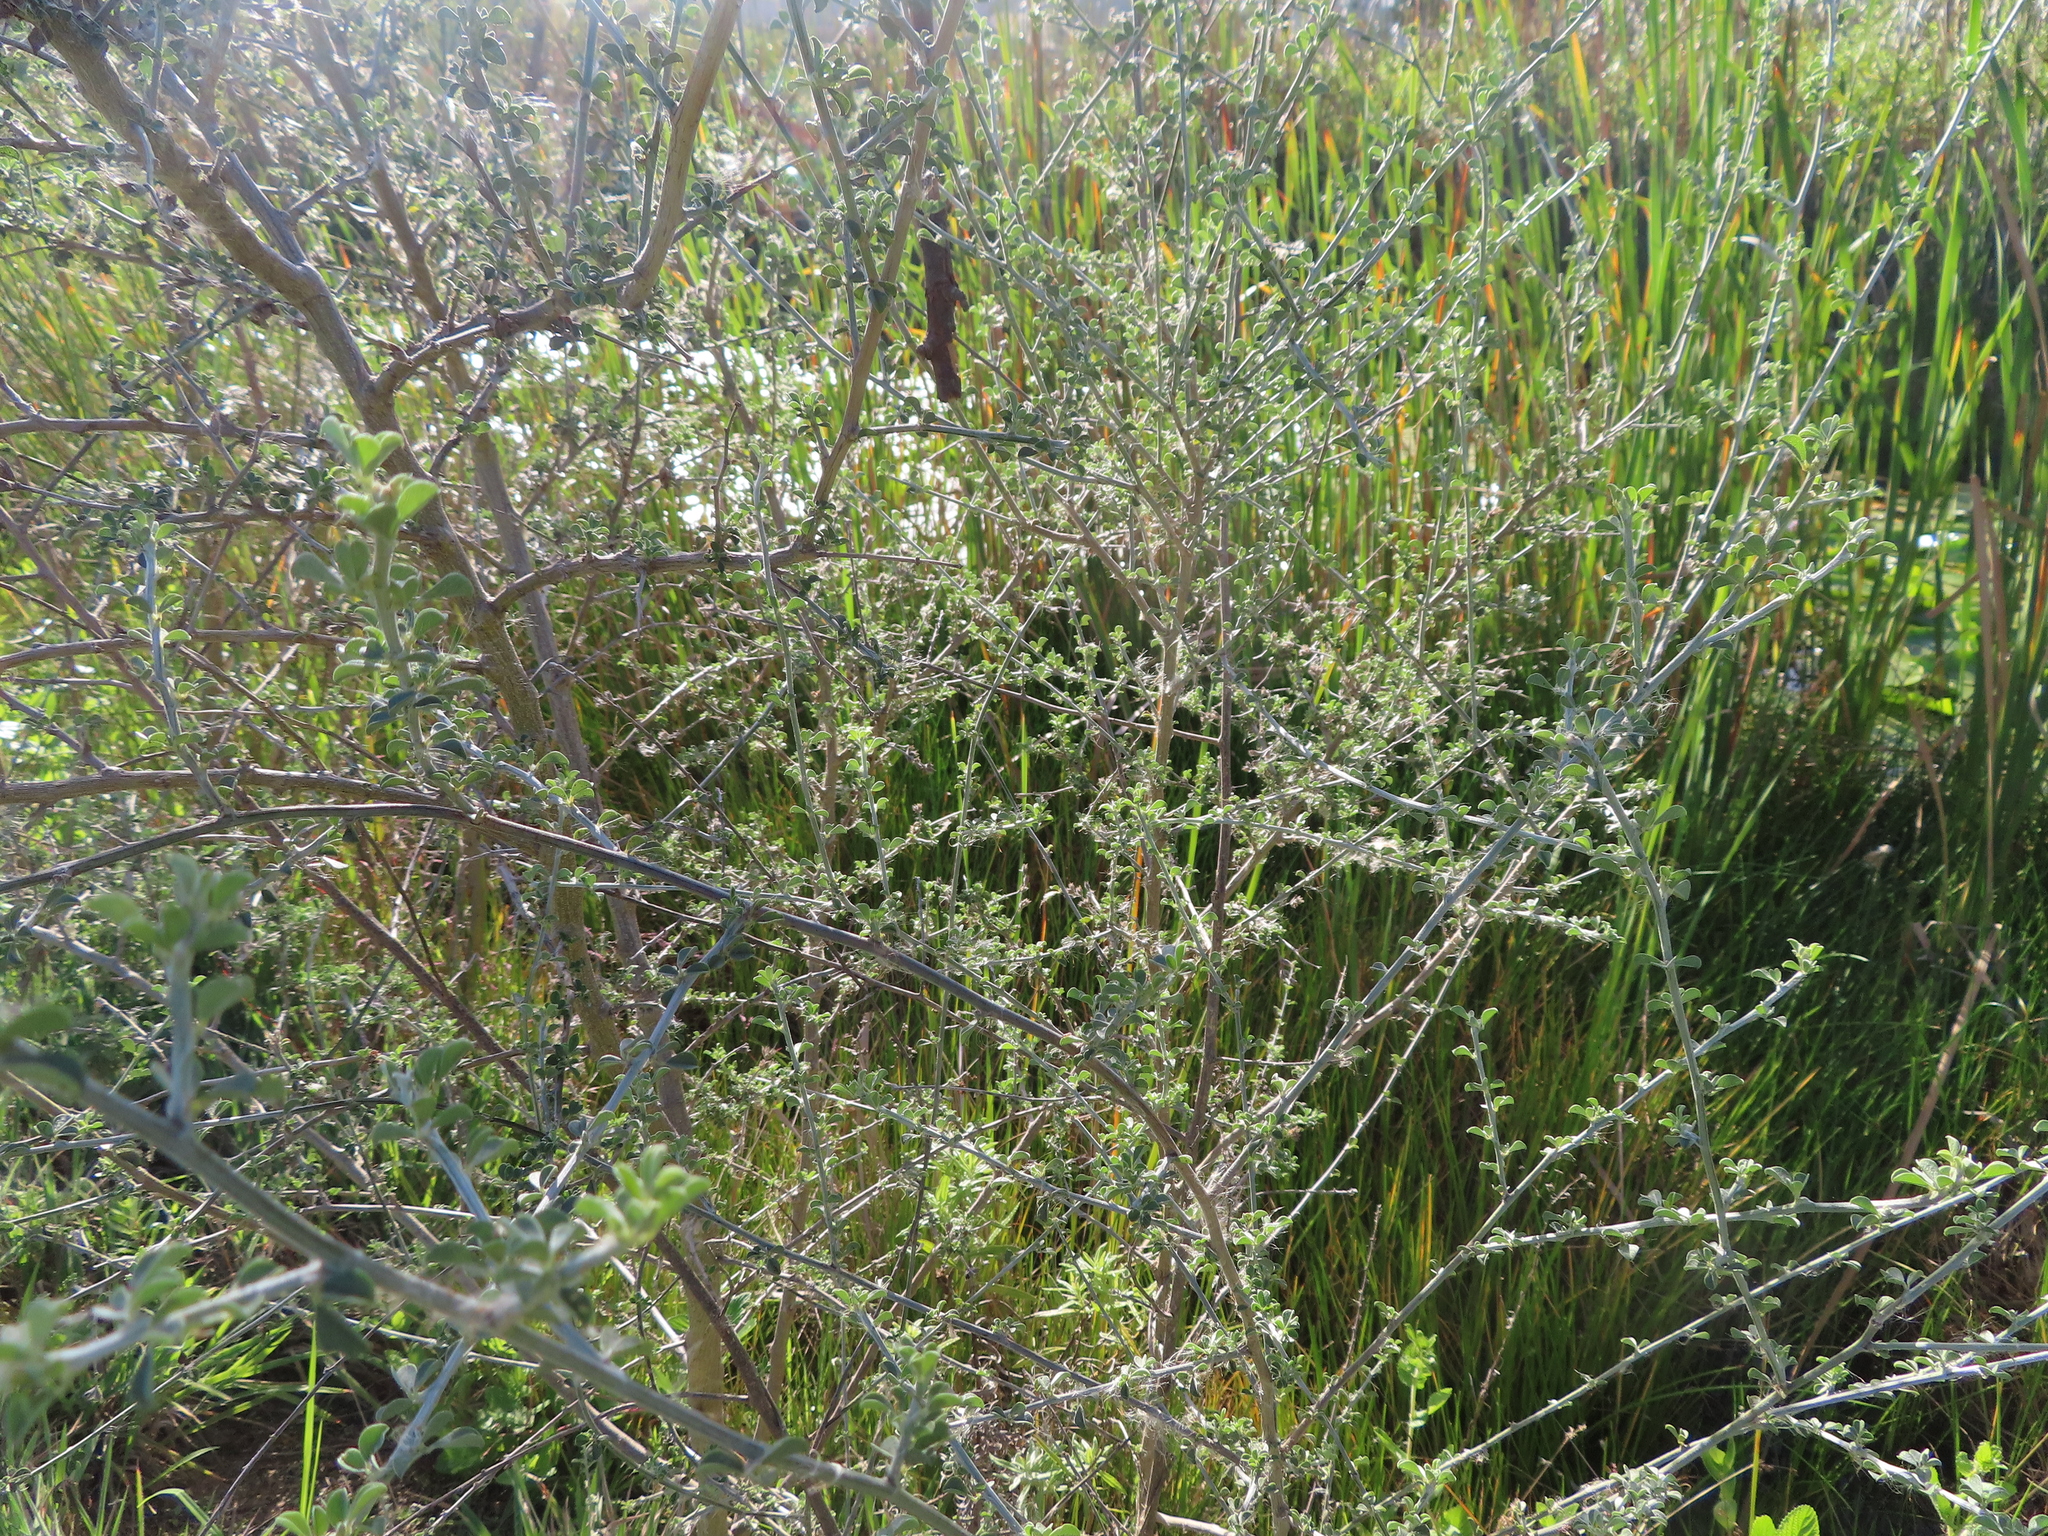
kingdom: Plantae
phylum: Tracheophyta
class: Magnoliopsida
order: Fabales
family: Fabaceae
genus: Psoralea
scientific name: Psoralea hirta
